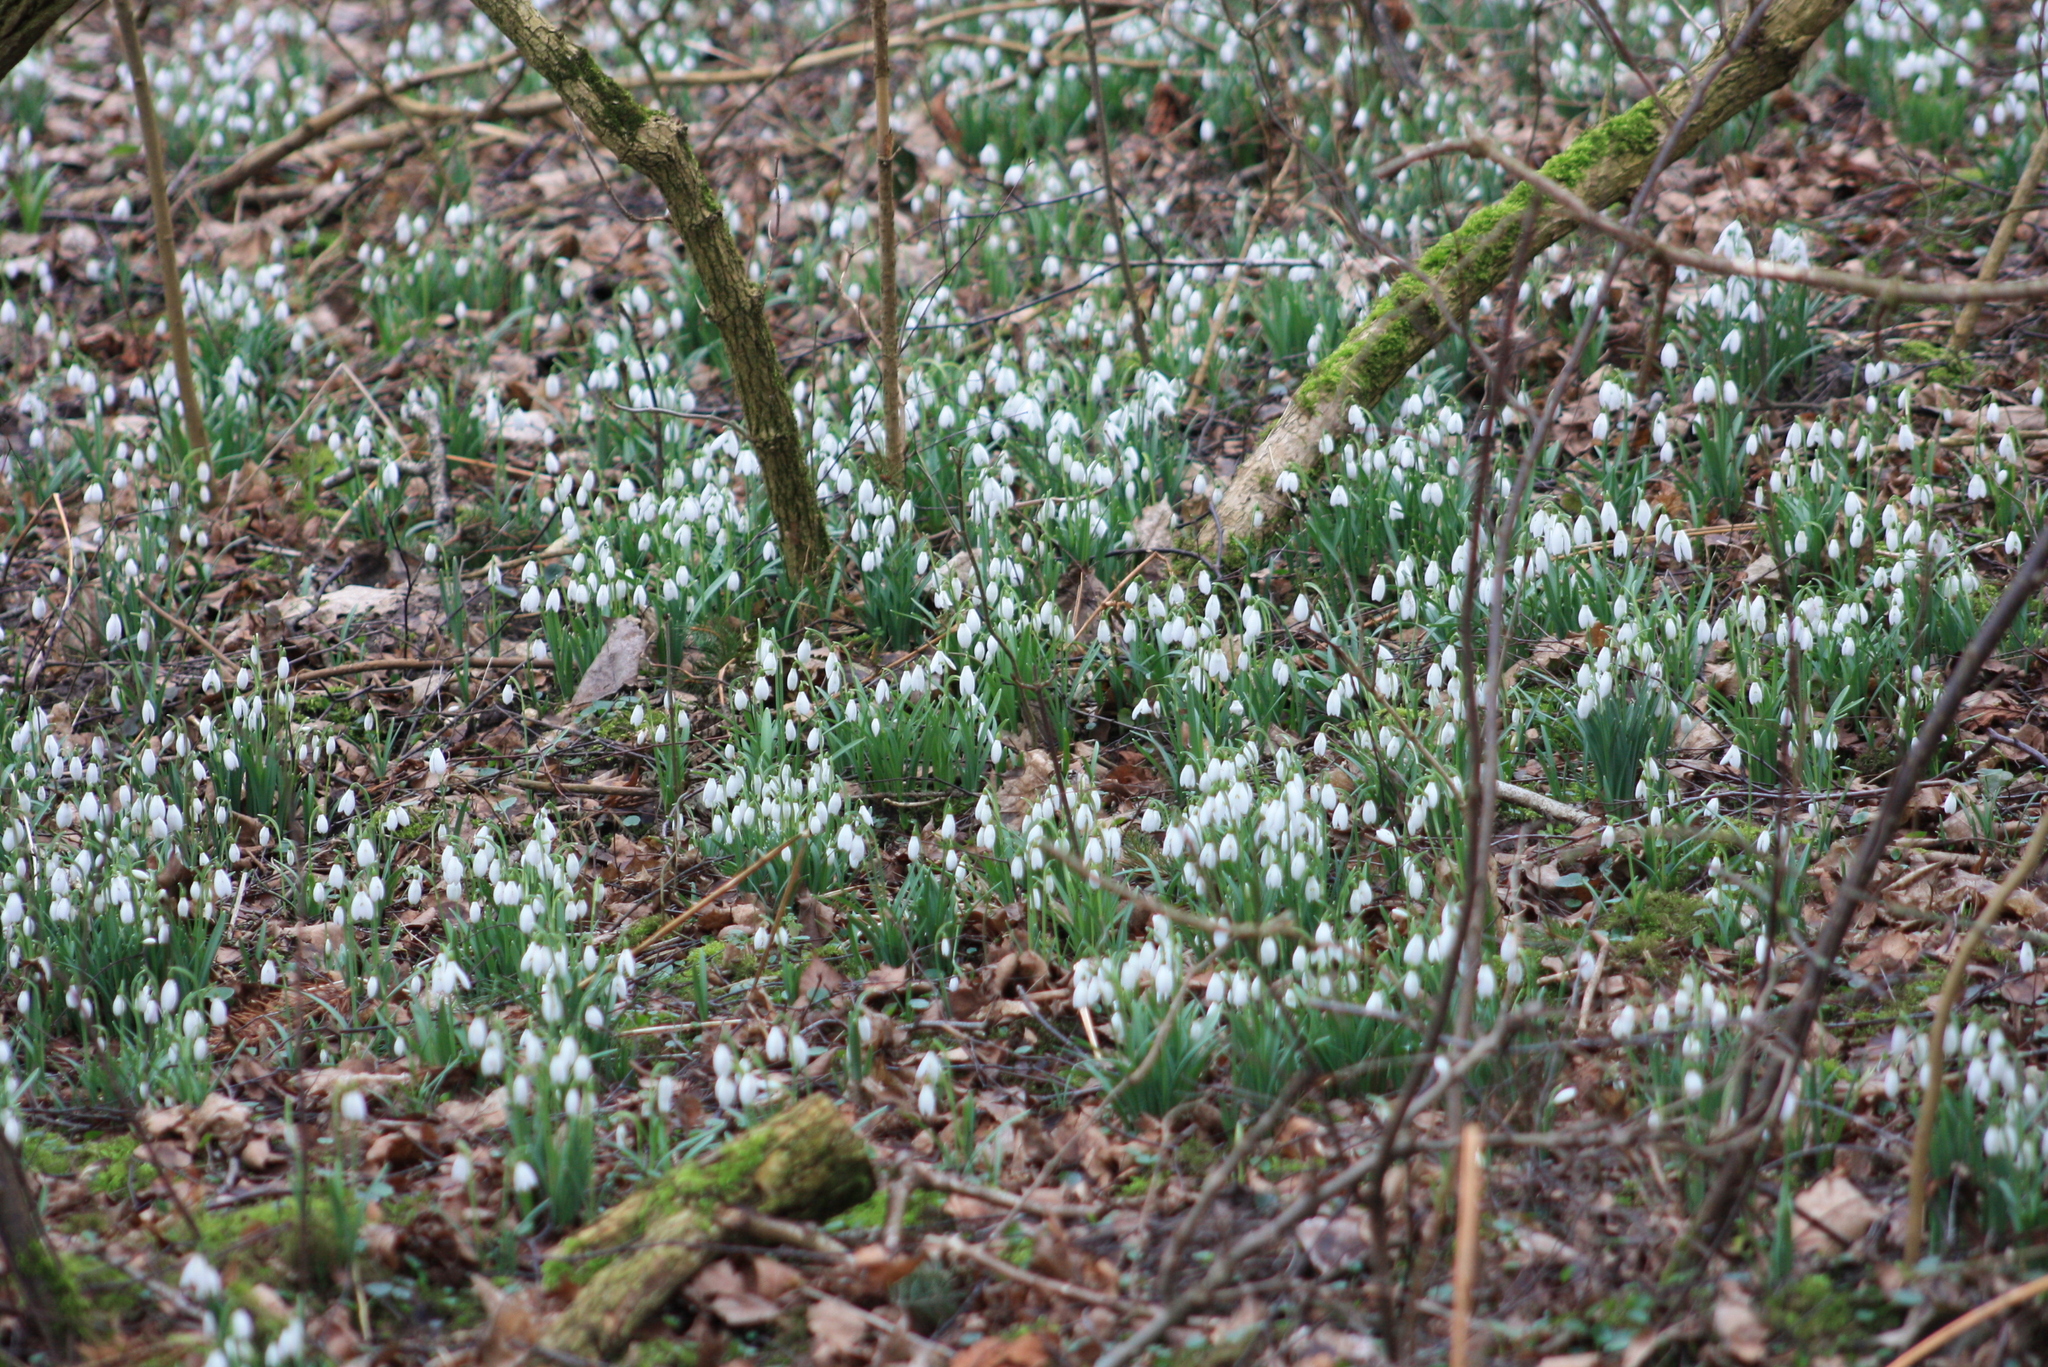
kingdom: Plantae
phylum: Tracheophyta
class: Liliopsida
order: Asparagales
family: Amaryllidaceae
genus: Galanthus
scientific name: Galanthus nivalis
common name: Snowdrop
